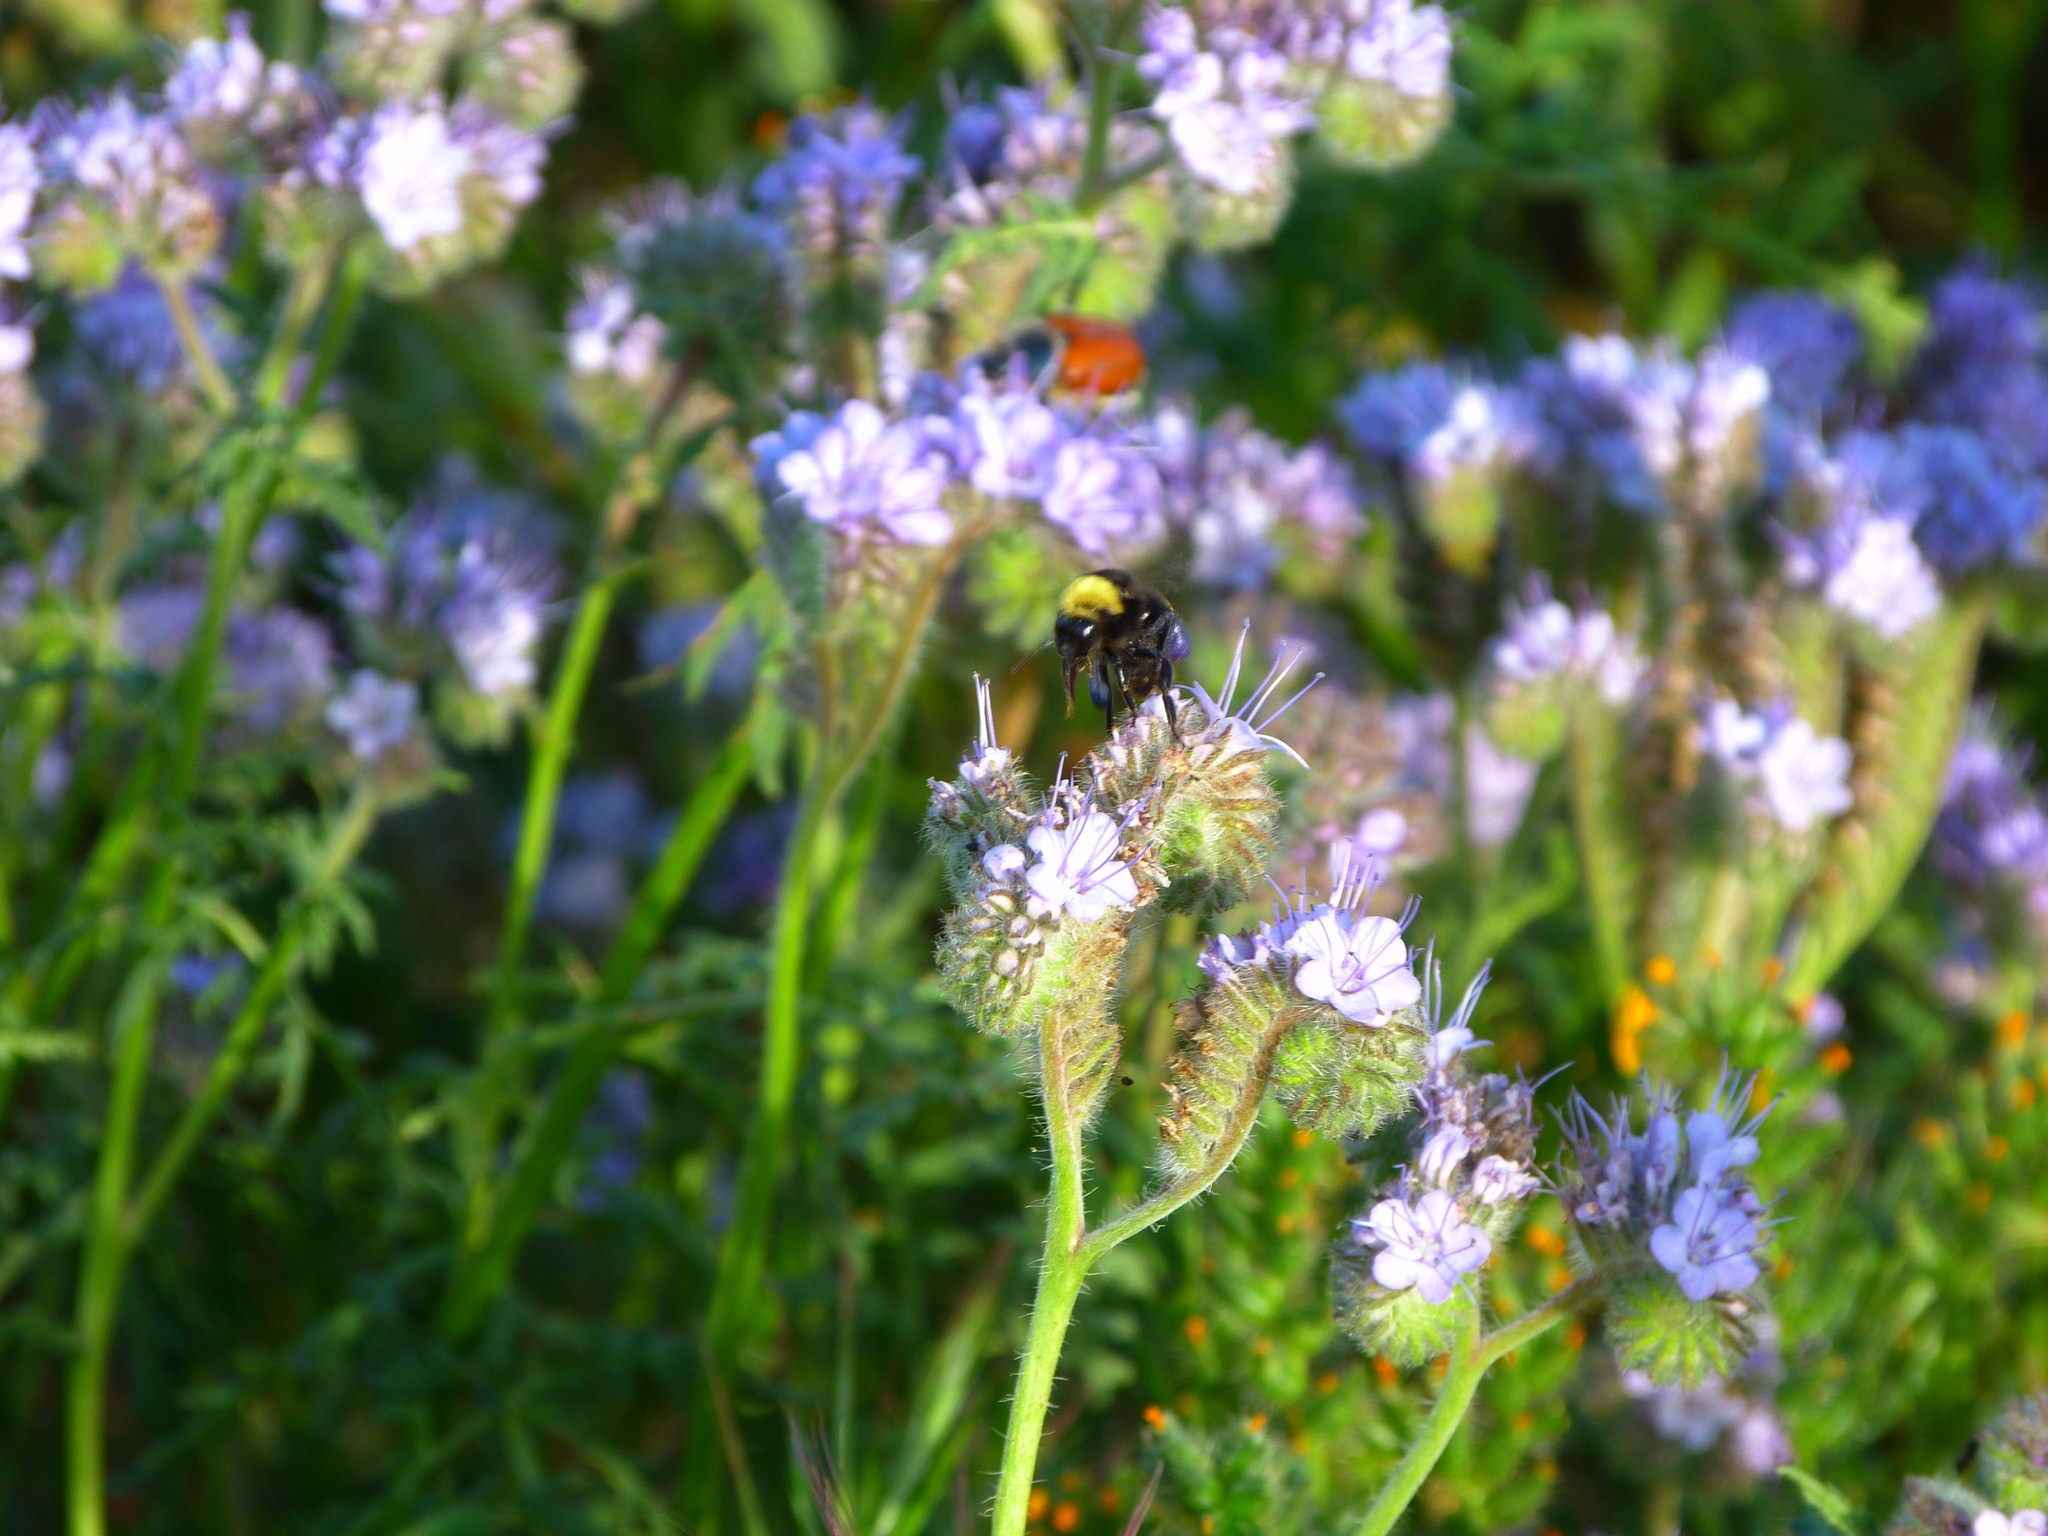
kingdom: Animalia
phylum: Arthropoda
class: Insecta
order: Hymenoptera
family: Apidae
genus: Bombus
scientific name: Bombus crotchii
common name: Crotch bumble bee
